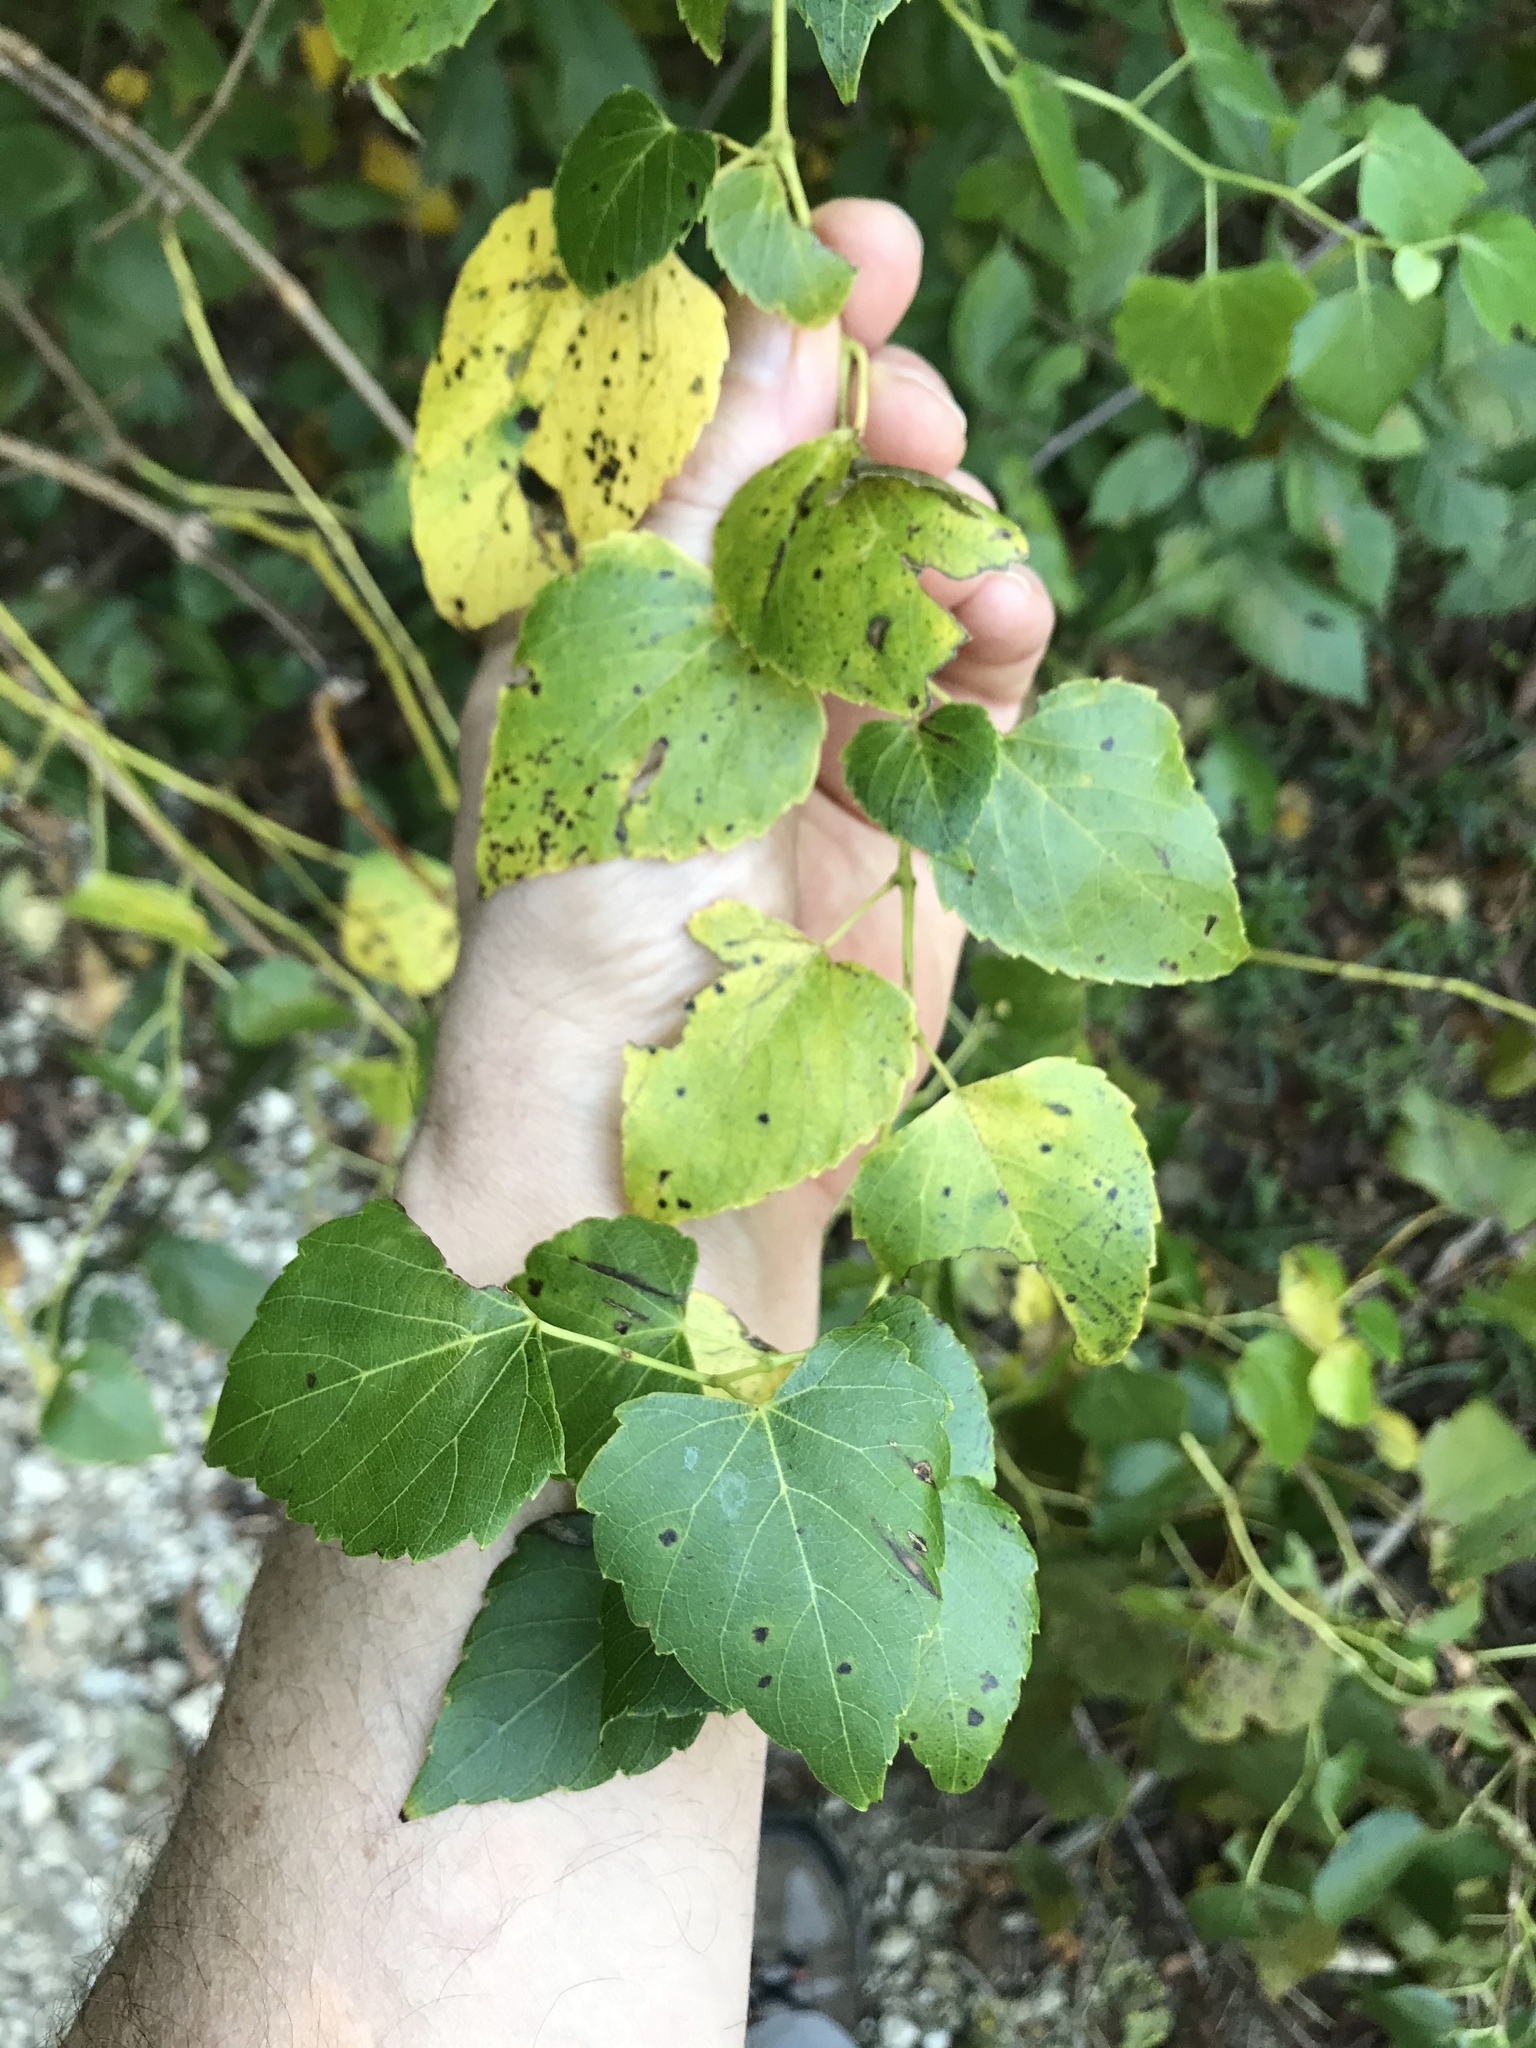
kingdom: Plantae
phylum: Tracheophyta
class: Magnoliopsida
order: Vitales
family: Vitaceae
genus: Ampelopsis
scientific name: Ampelopsis cordata
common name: Heart-leaf ampelopsis
